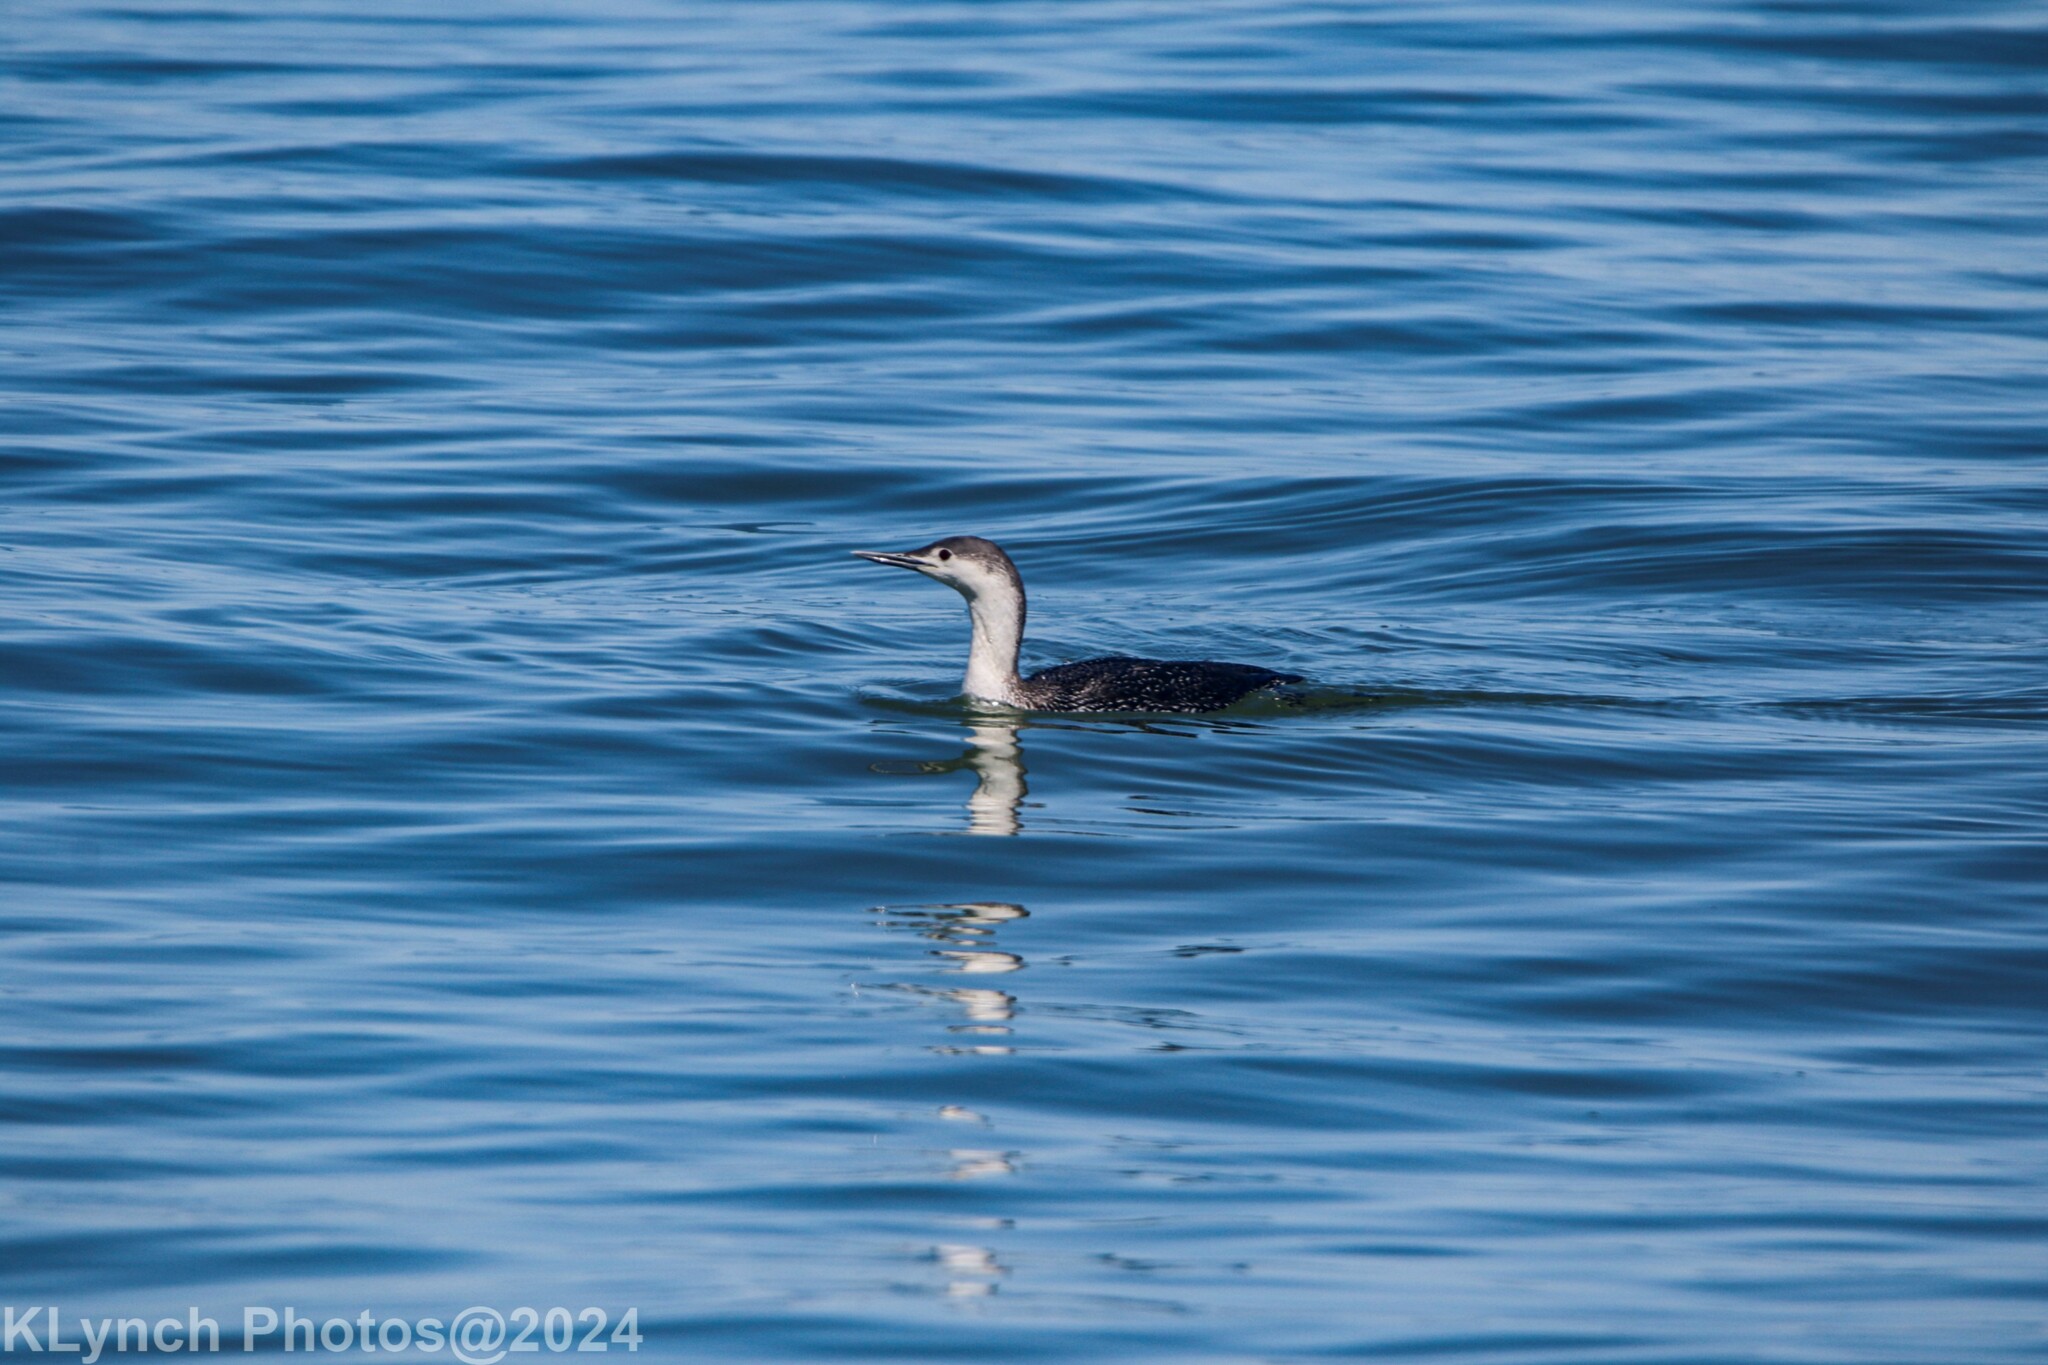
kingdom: Animalia
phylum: Chordata
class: Aves
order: Gaviiformes
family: Gaviidae
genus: Gavia
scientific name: Gavia stellata
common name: Red-throated loon
